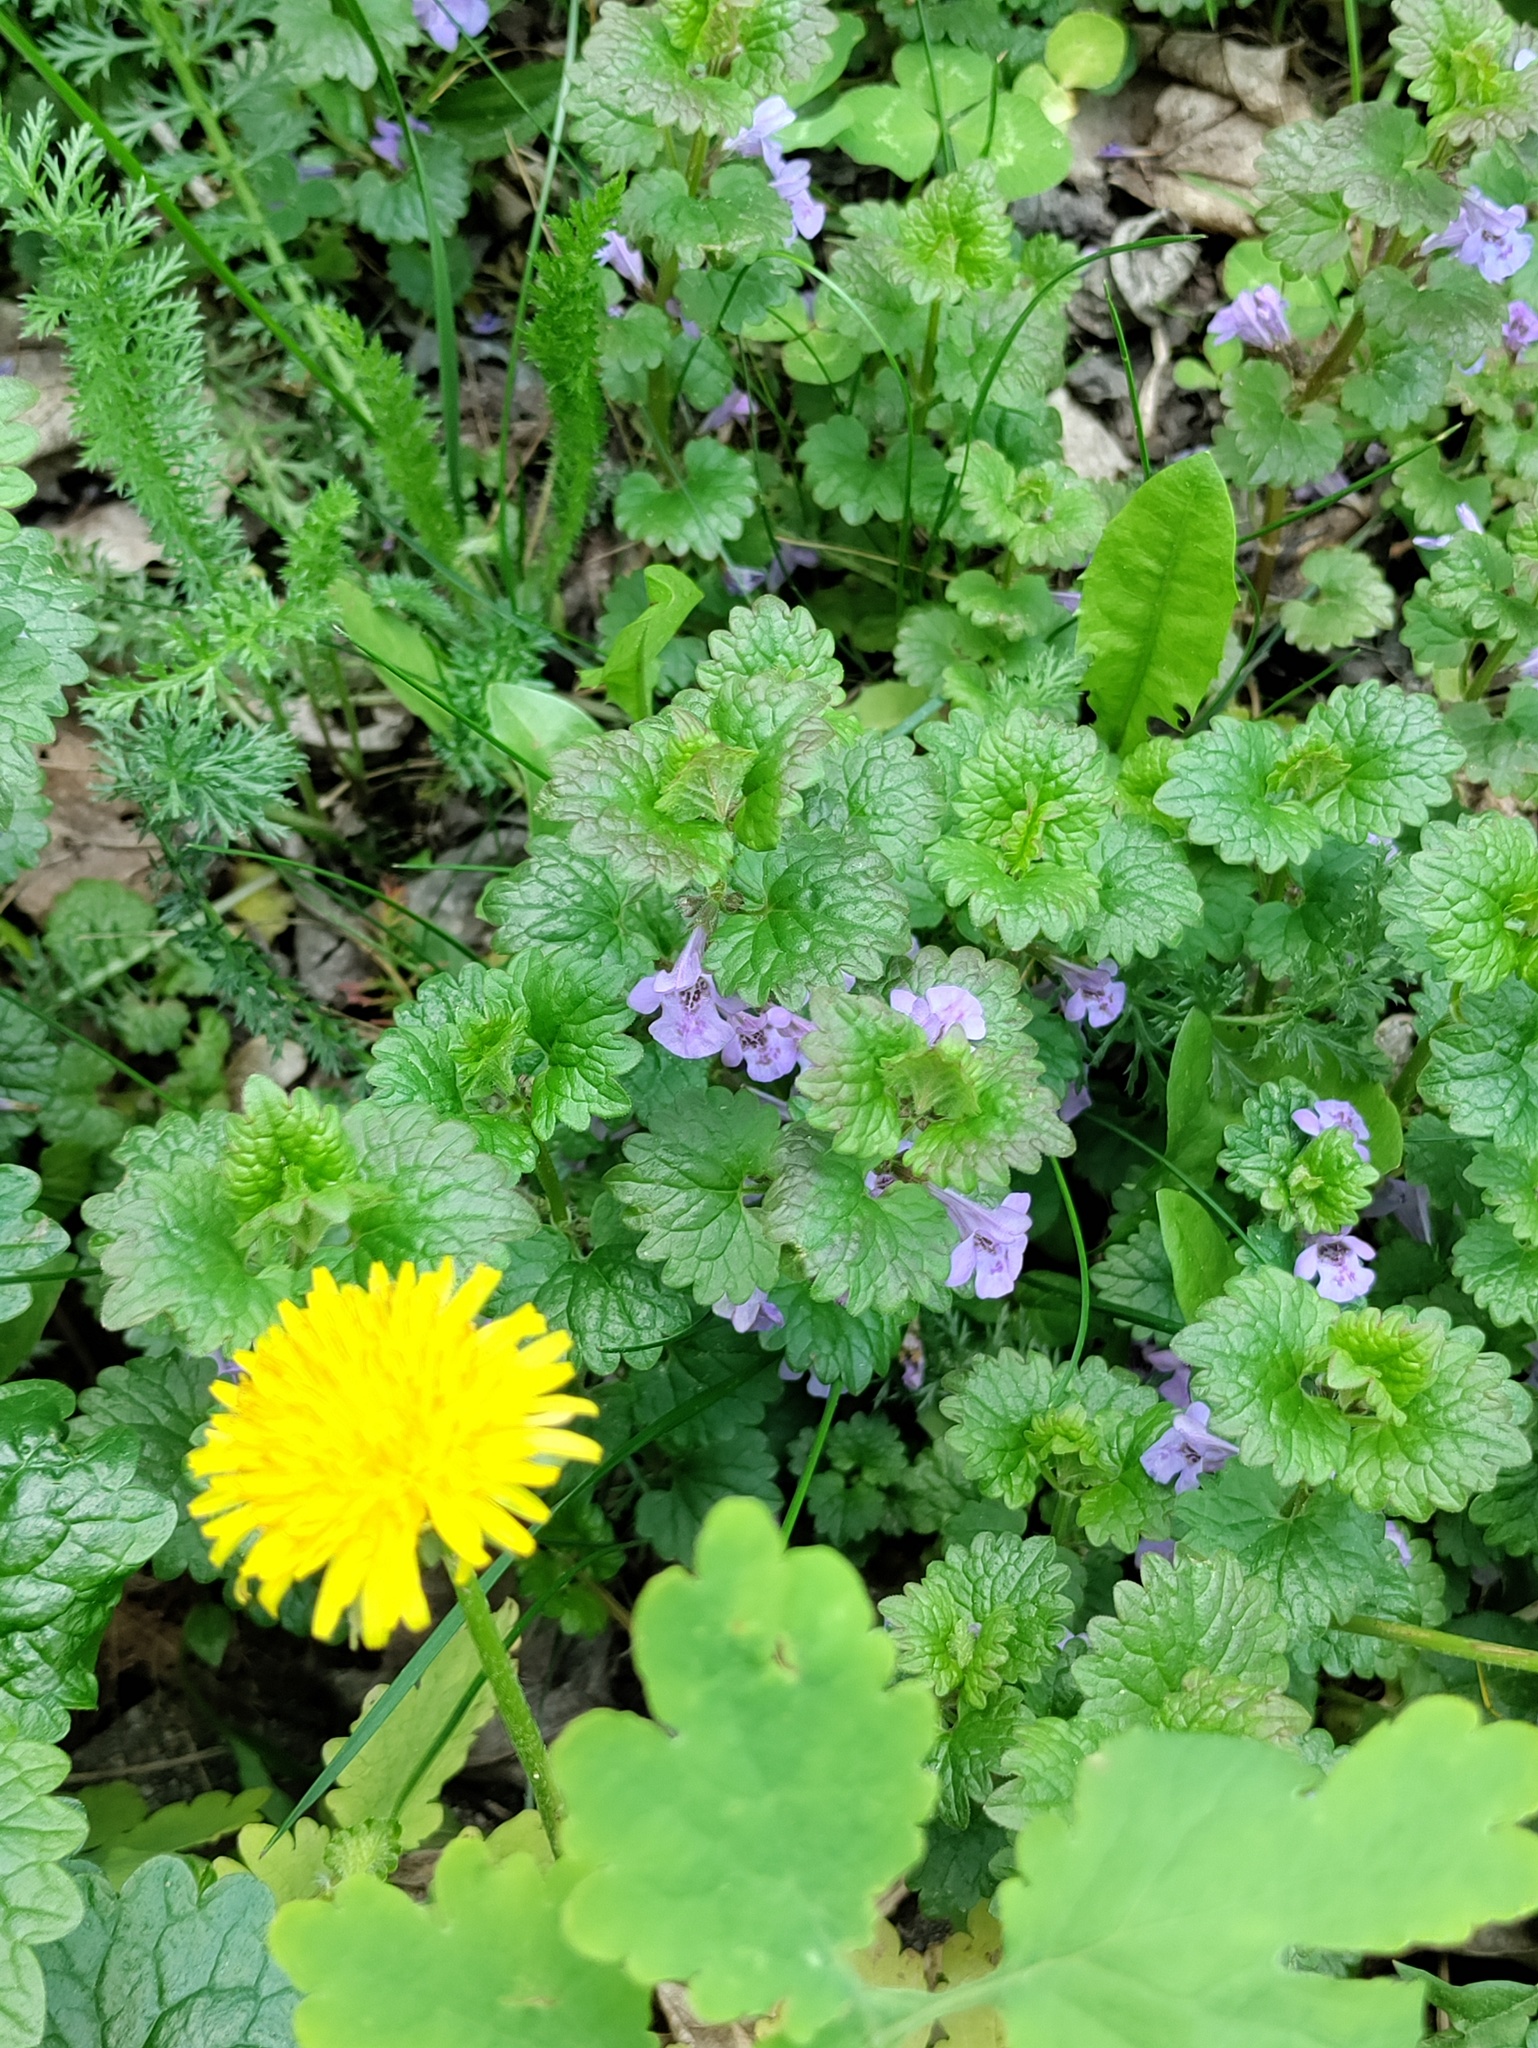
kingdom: Plantae
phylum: Tracheophyta
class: Magnoliopsida
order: Lamiales
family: Lamiaceae
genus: Glechoma
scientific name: Glechoma hederacea
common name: Ground ivy
